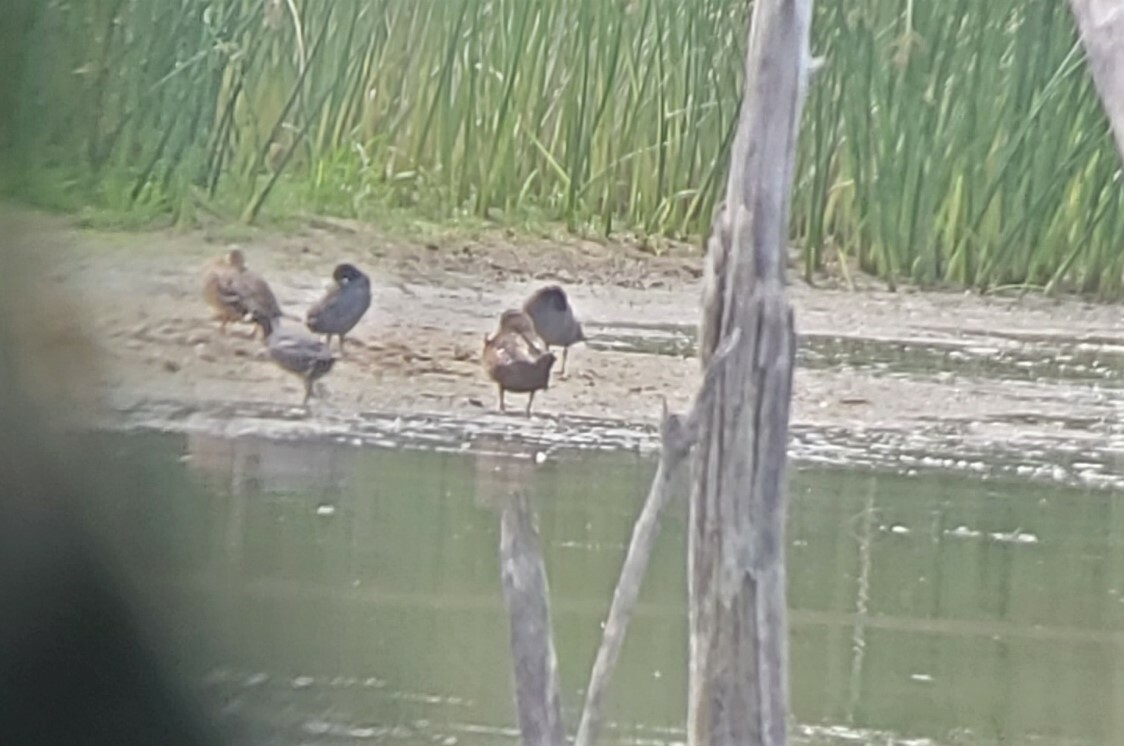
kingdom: Animalia
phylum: Chordata
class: Aves
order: Anseriformes
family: Anatidae
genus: Anas
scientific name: Anas diazi
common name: Mexican duck
